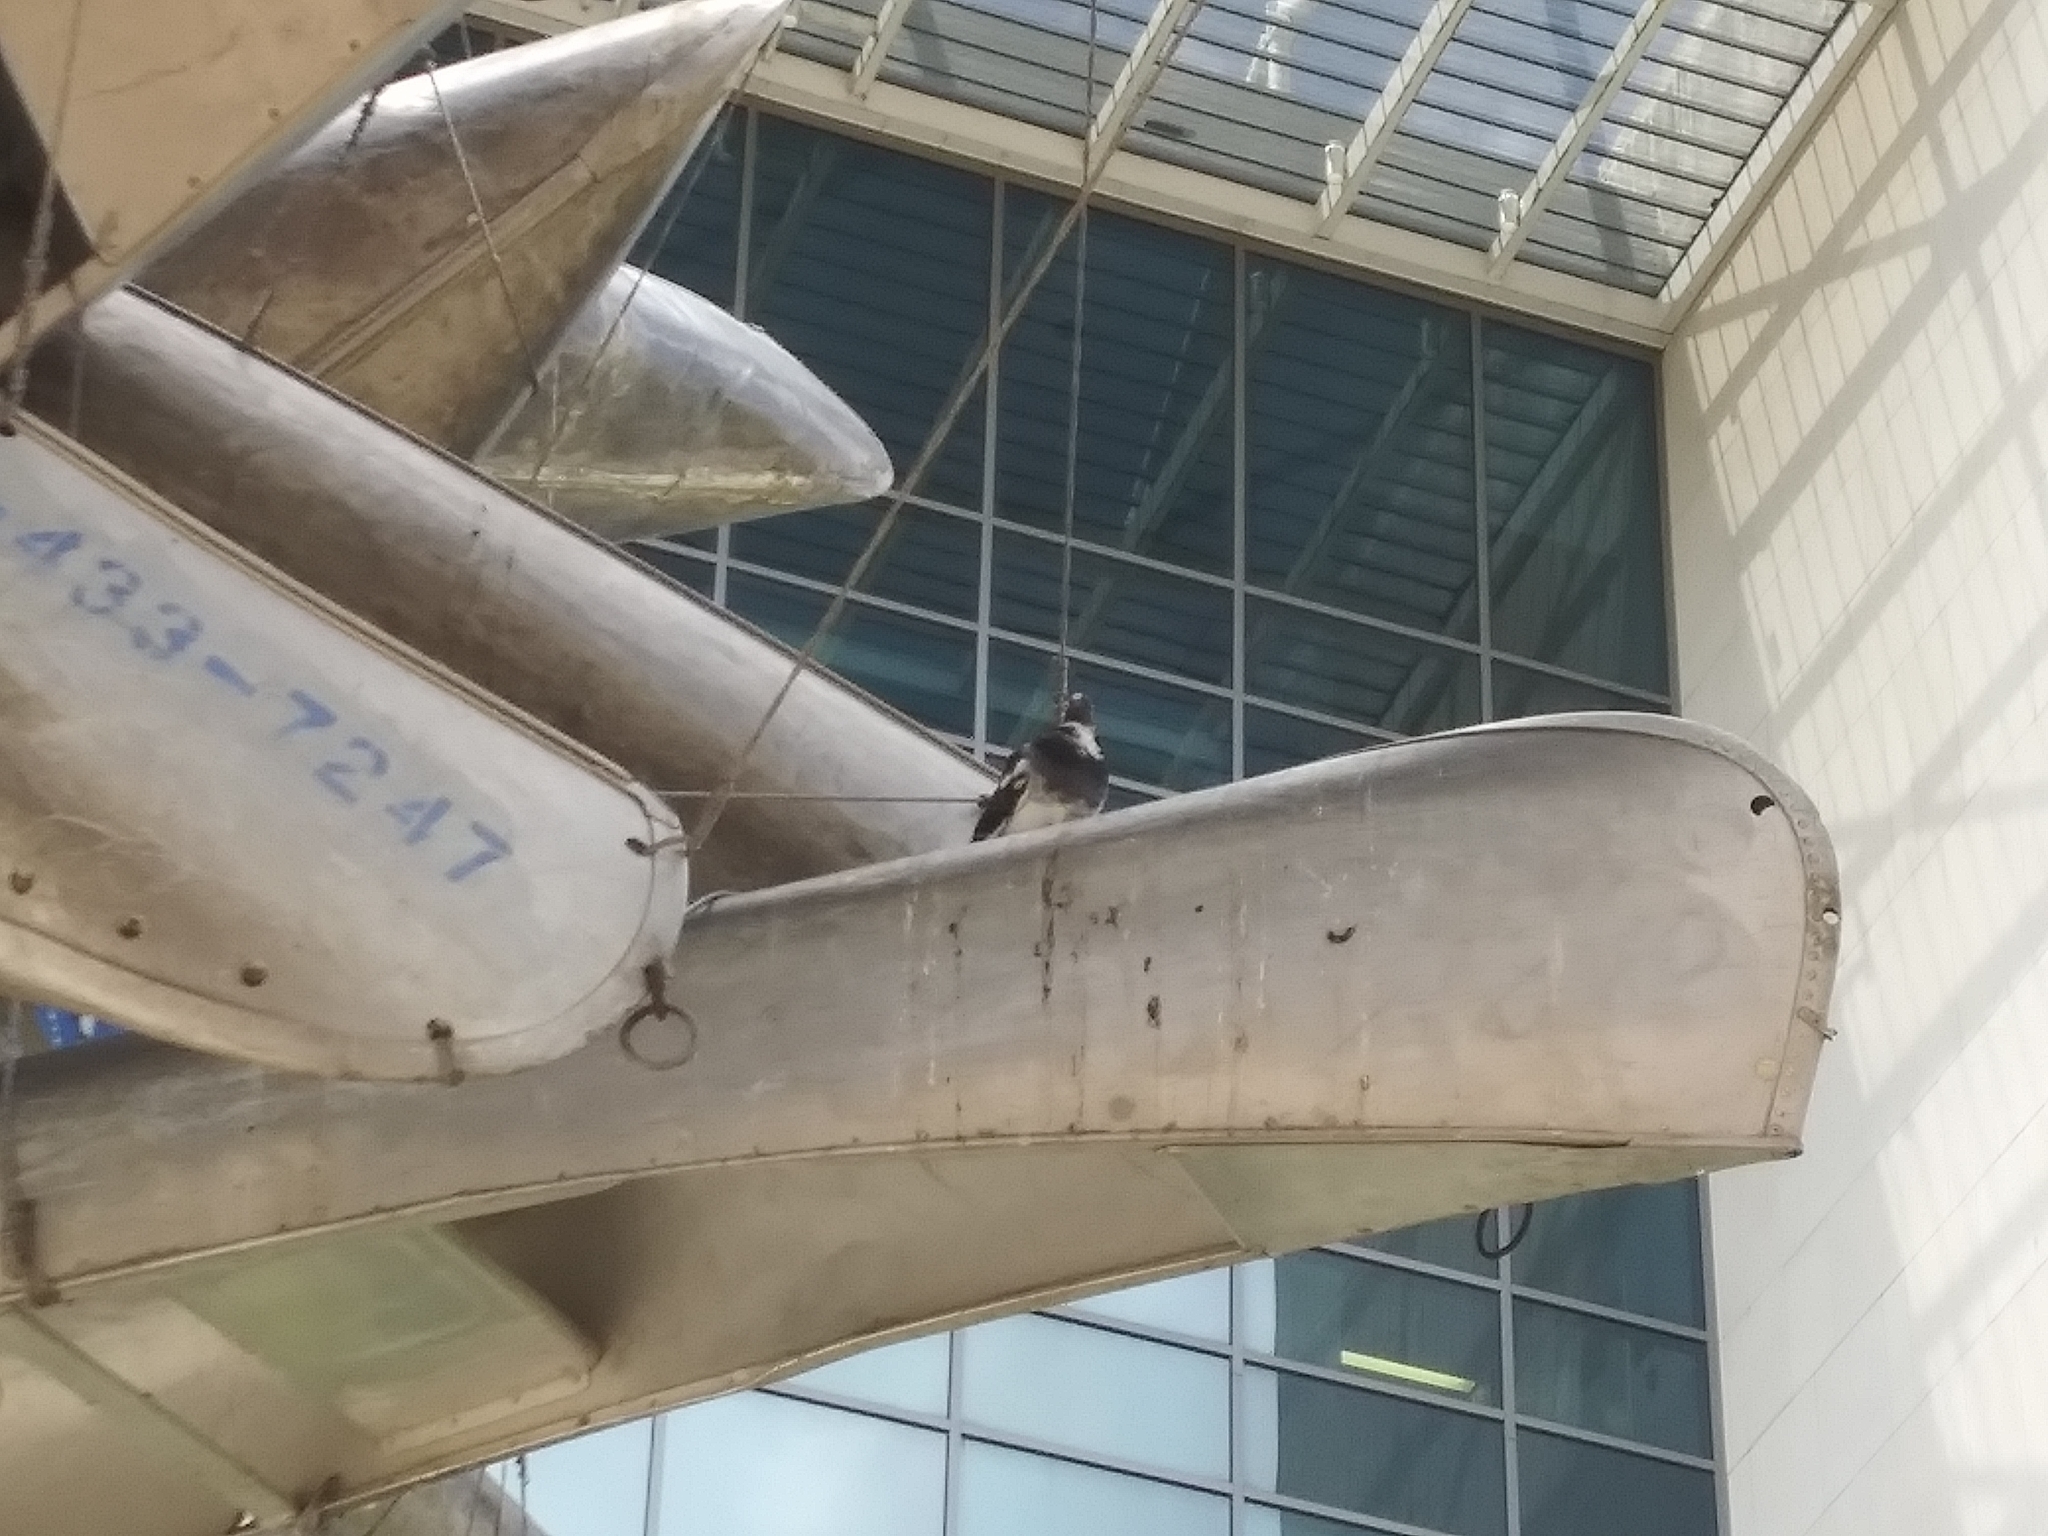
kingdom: Animalia
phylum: Chordata
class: Aves
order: Columbiformes
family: Columbidae
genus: Columba
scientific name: Columba livia
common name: Rock pigeon
